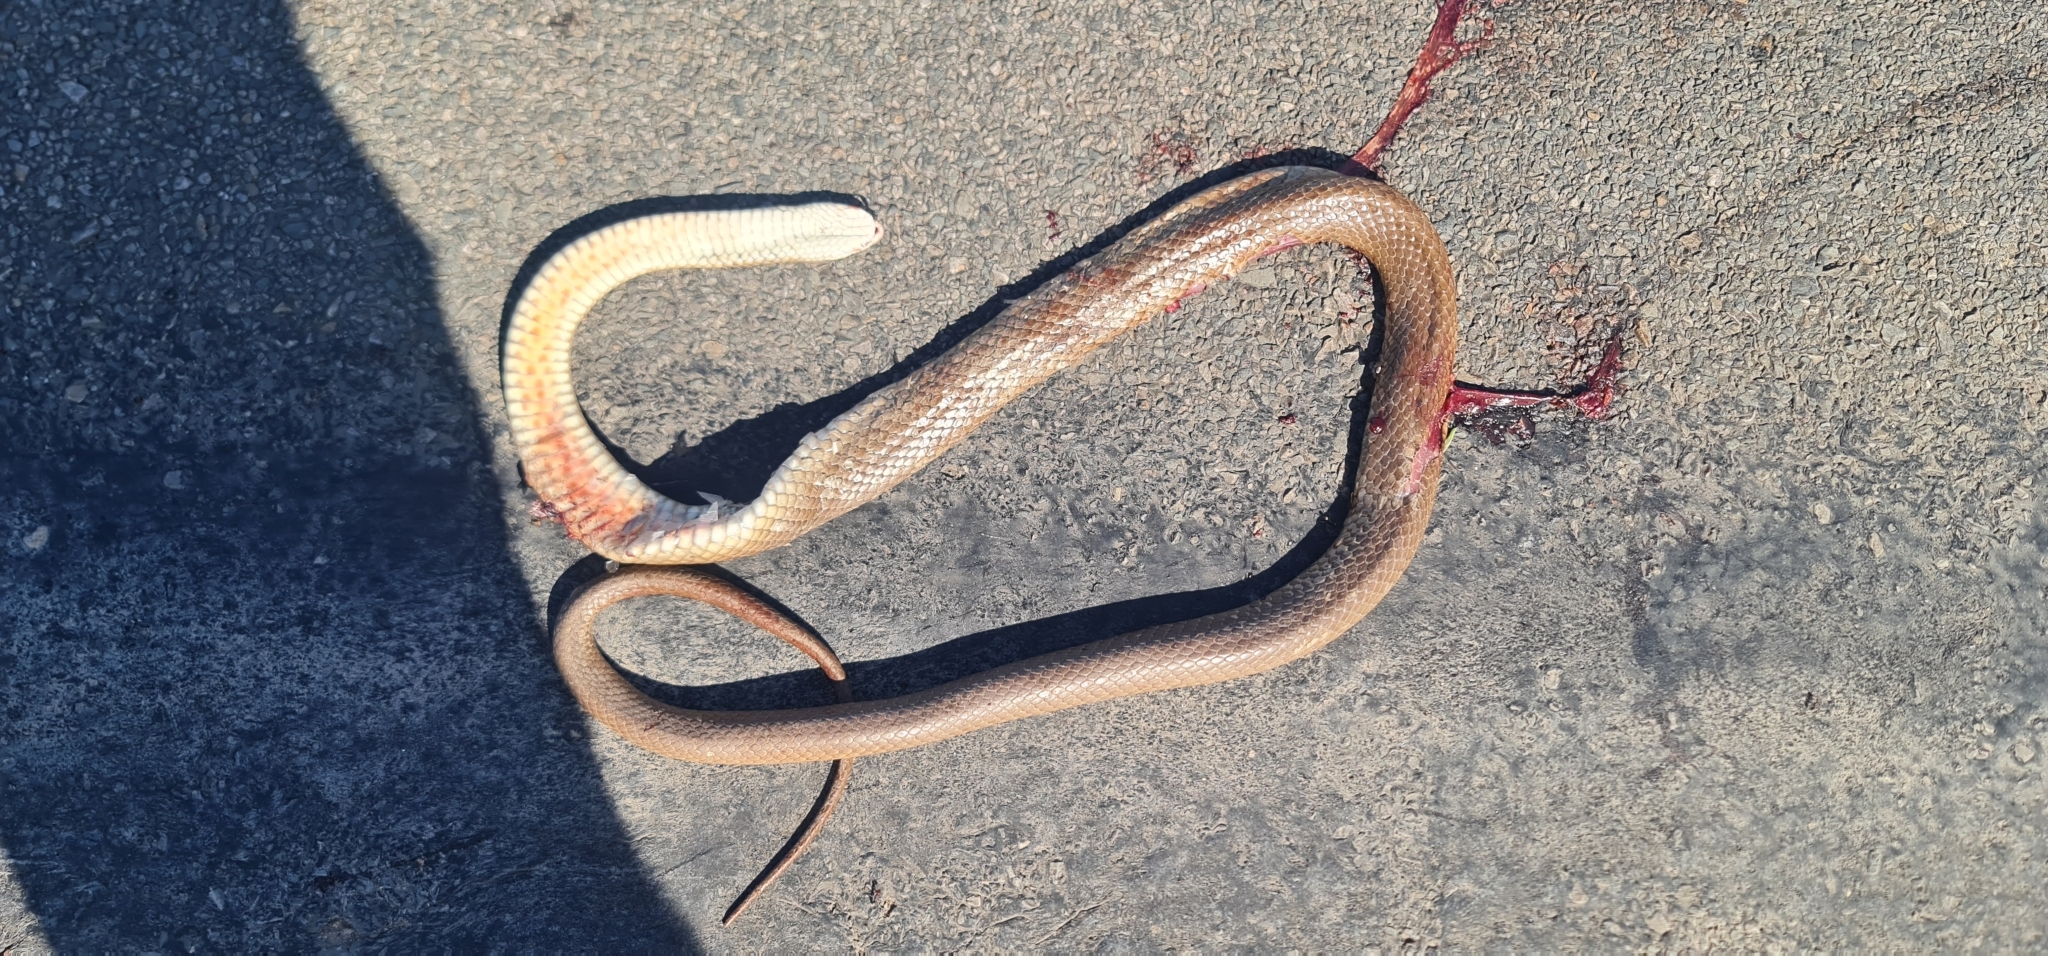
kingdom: Animalia
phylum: Chordata
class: Squamata
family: Elapidae
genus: Pseudonaja
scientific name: Pseudonaja textilis
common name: Eastern brown snake
